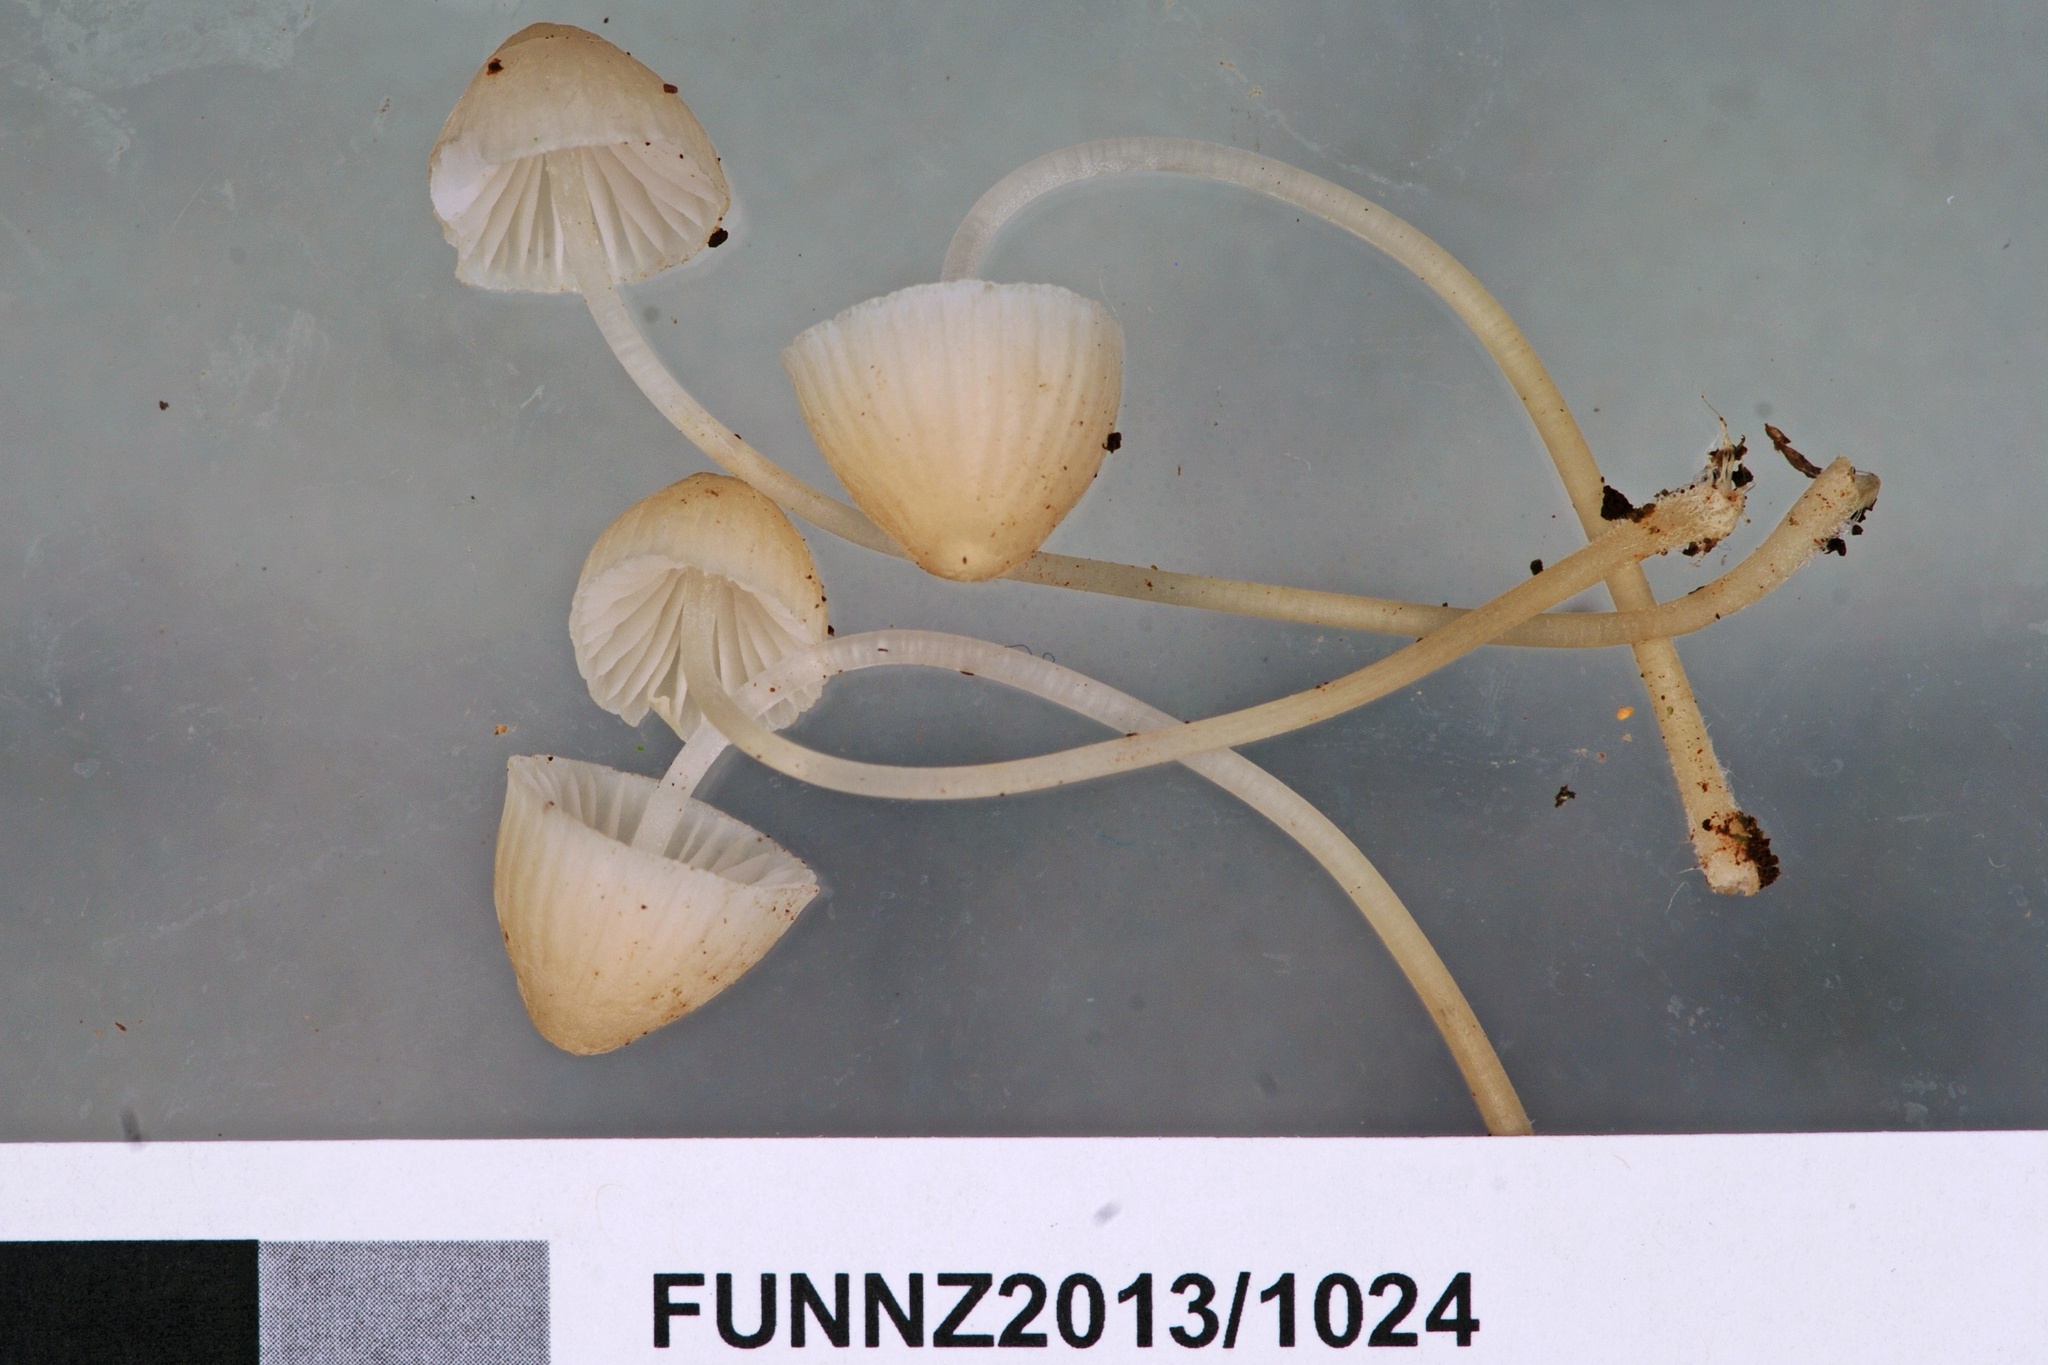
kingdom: Fungi
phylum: Basidiomycota
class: Agaricomycetes
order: Agaricales
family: Mycenaceae
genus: Mycena
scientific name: Mycena morris-jonesii
